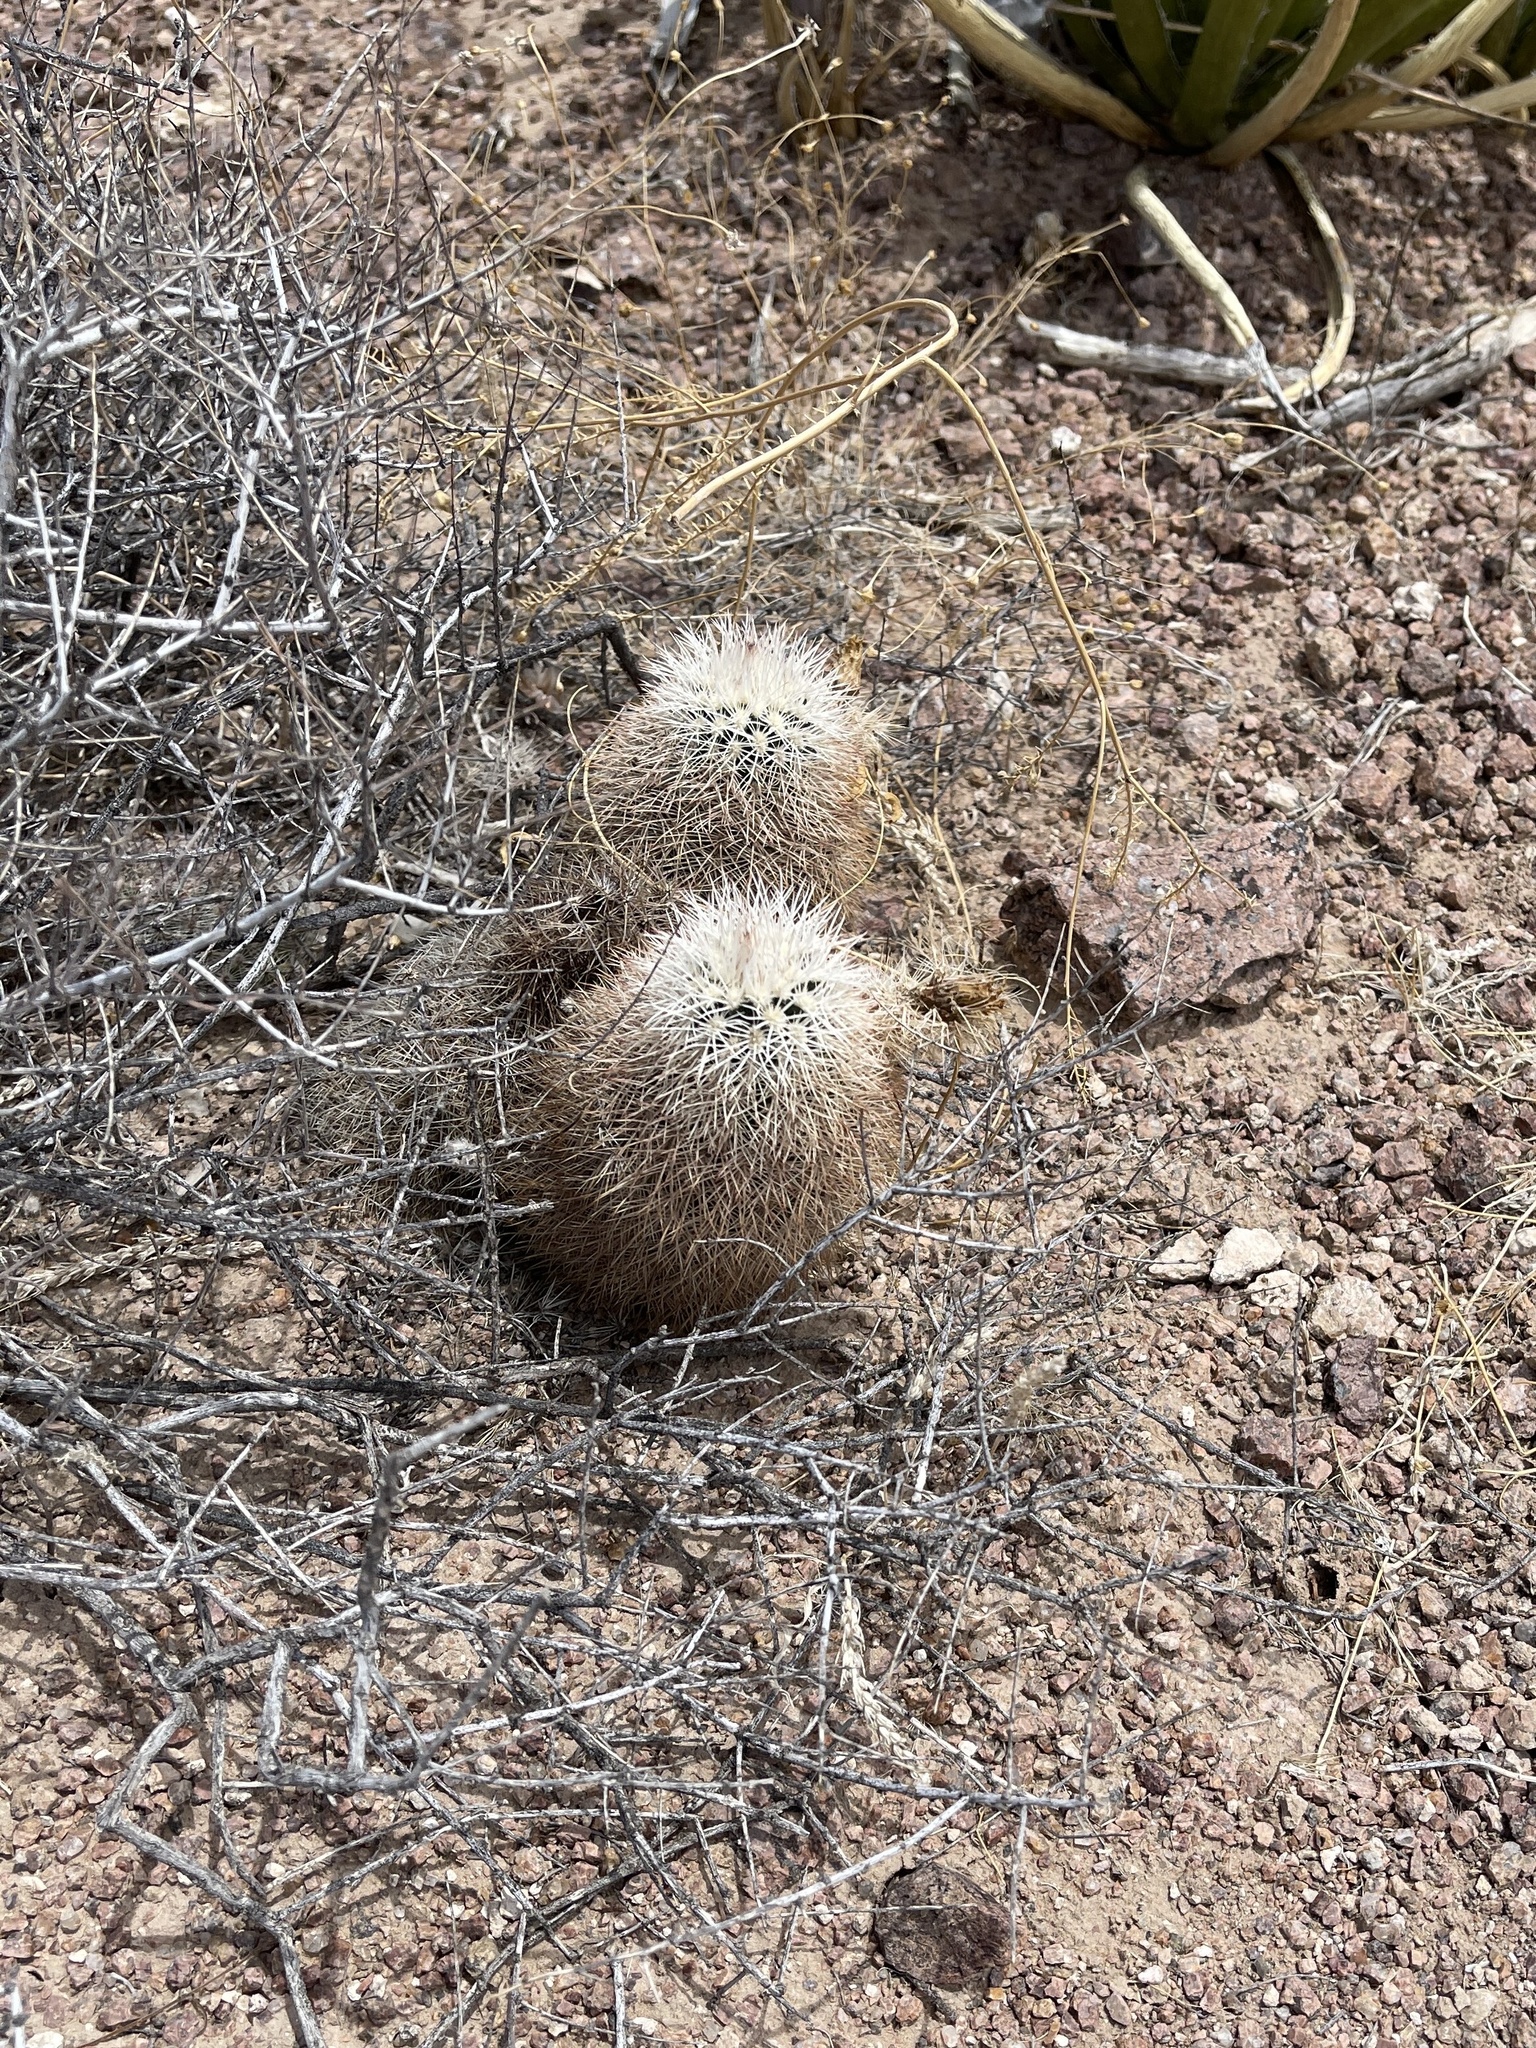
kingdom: Plantae
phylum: Tracheophyta
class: Magnoliopsida
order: Caryophyllales
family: Cactaceae
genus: Echinocereus
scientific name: Echinocereus dasyacanthus
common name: Spiny hedgehog cactus
